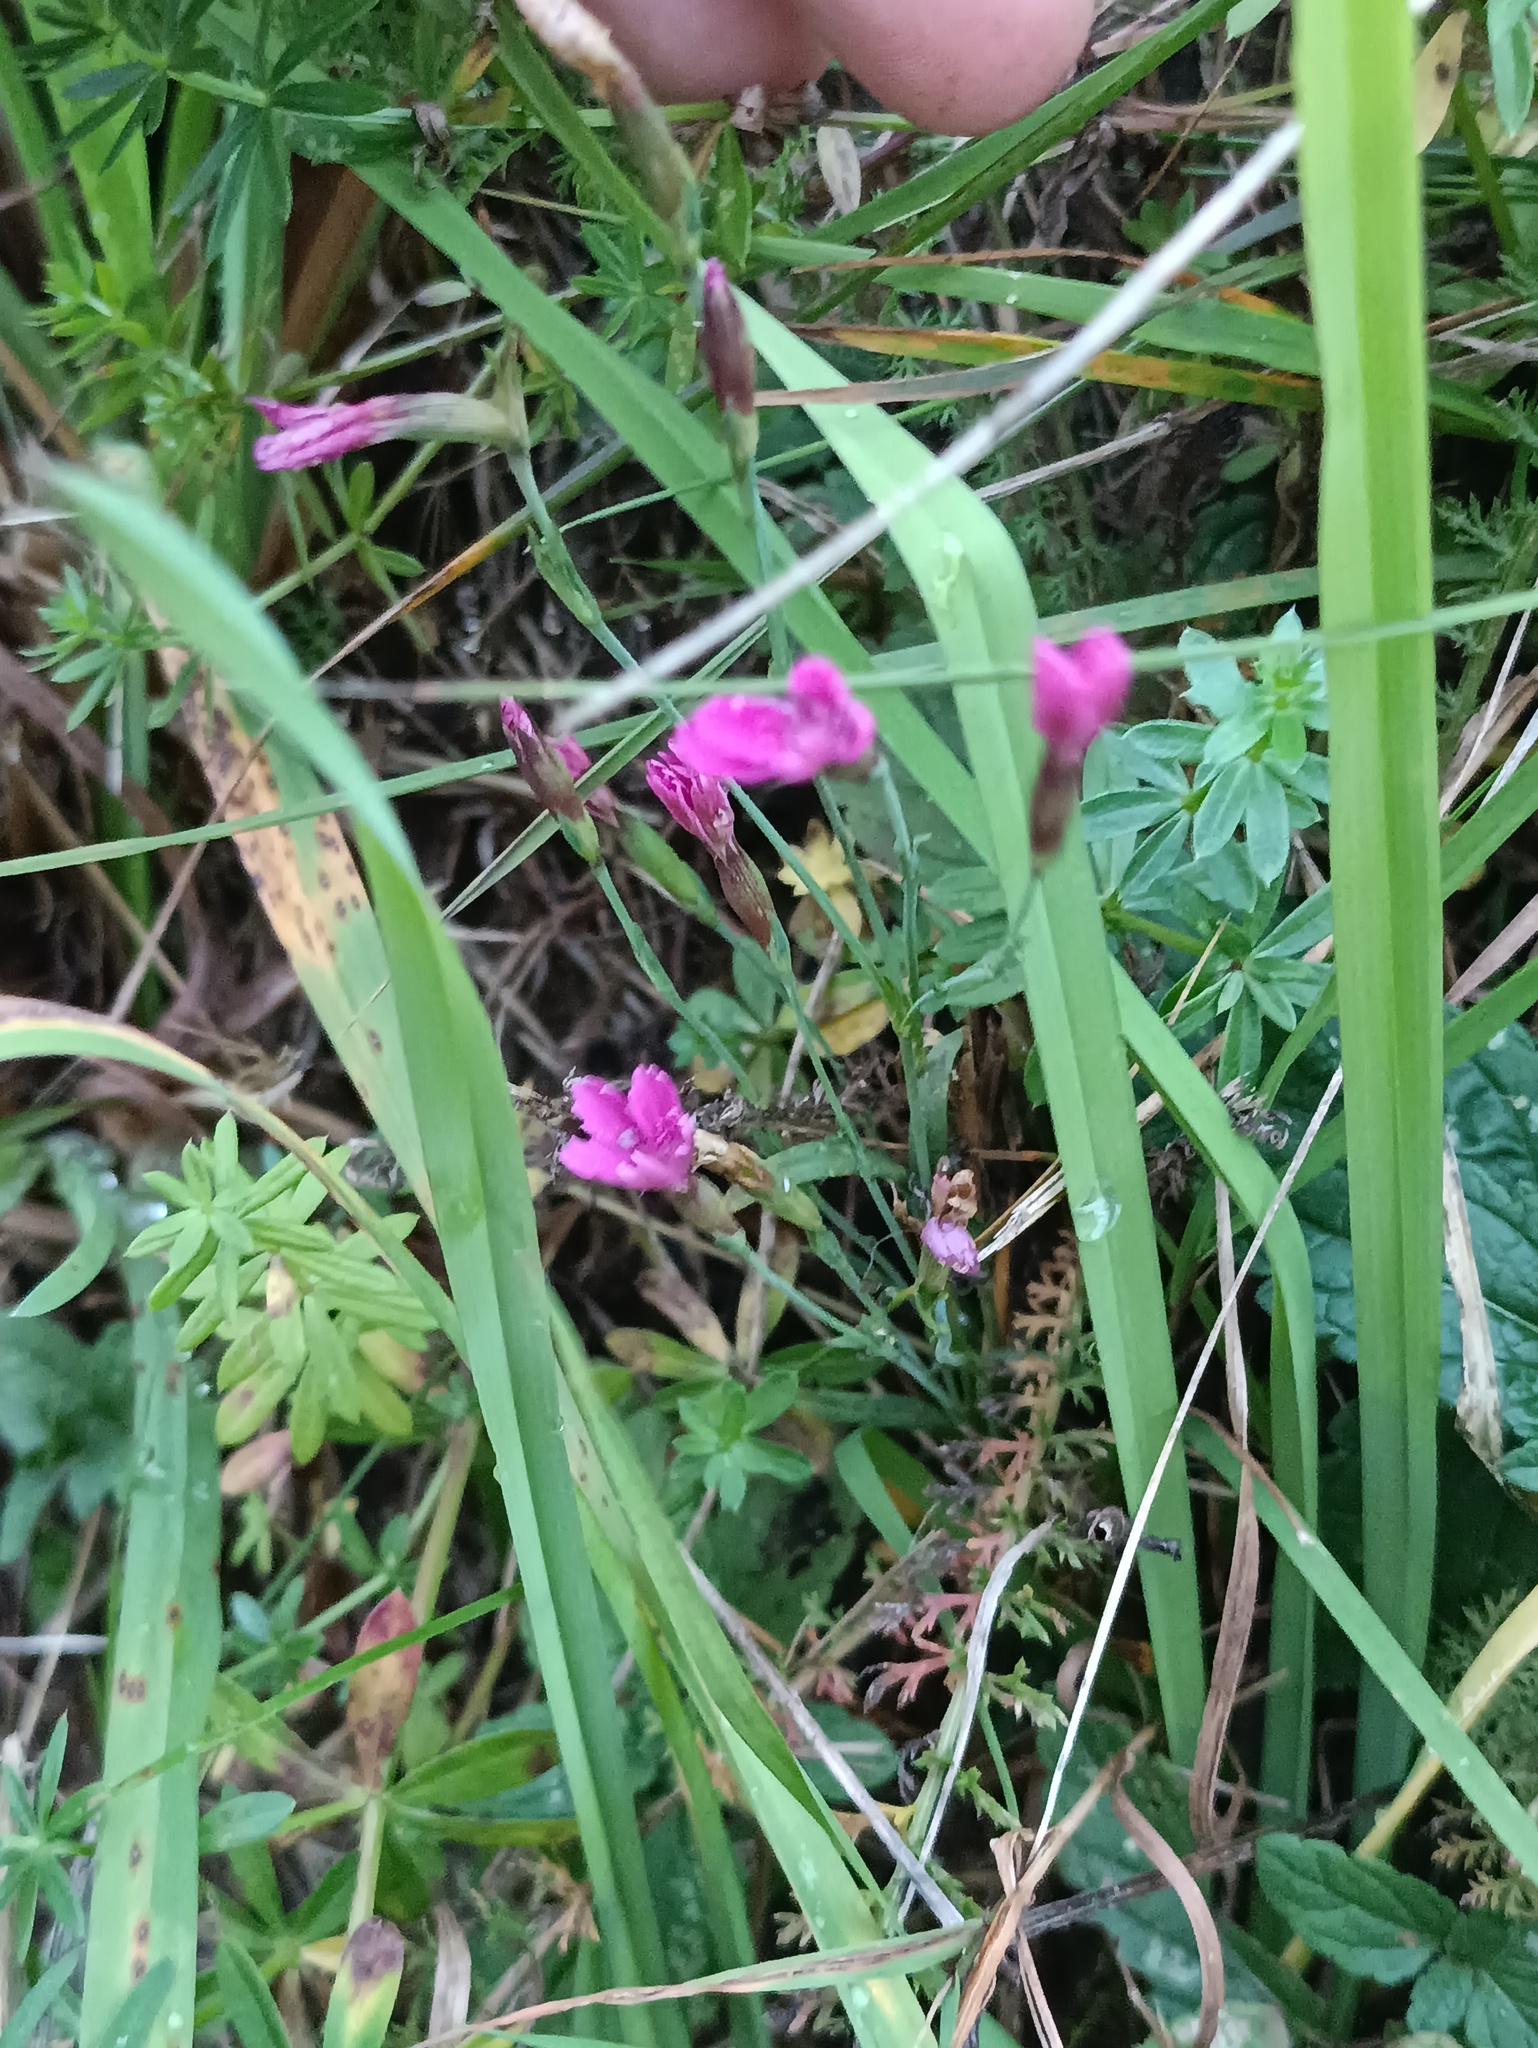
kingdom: Plantae
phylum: Tracheophyta
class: Magnoliopsida
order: Caryophyllales
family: Caryophyllaceae
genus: Dianthus
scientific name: Dianthus deltoides
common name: Maiden pink
